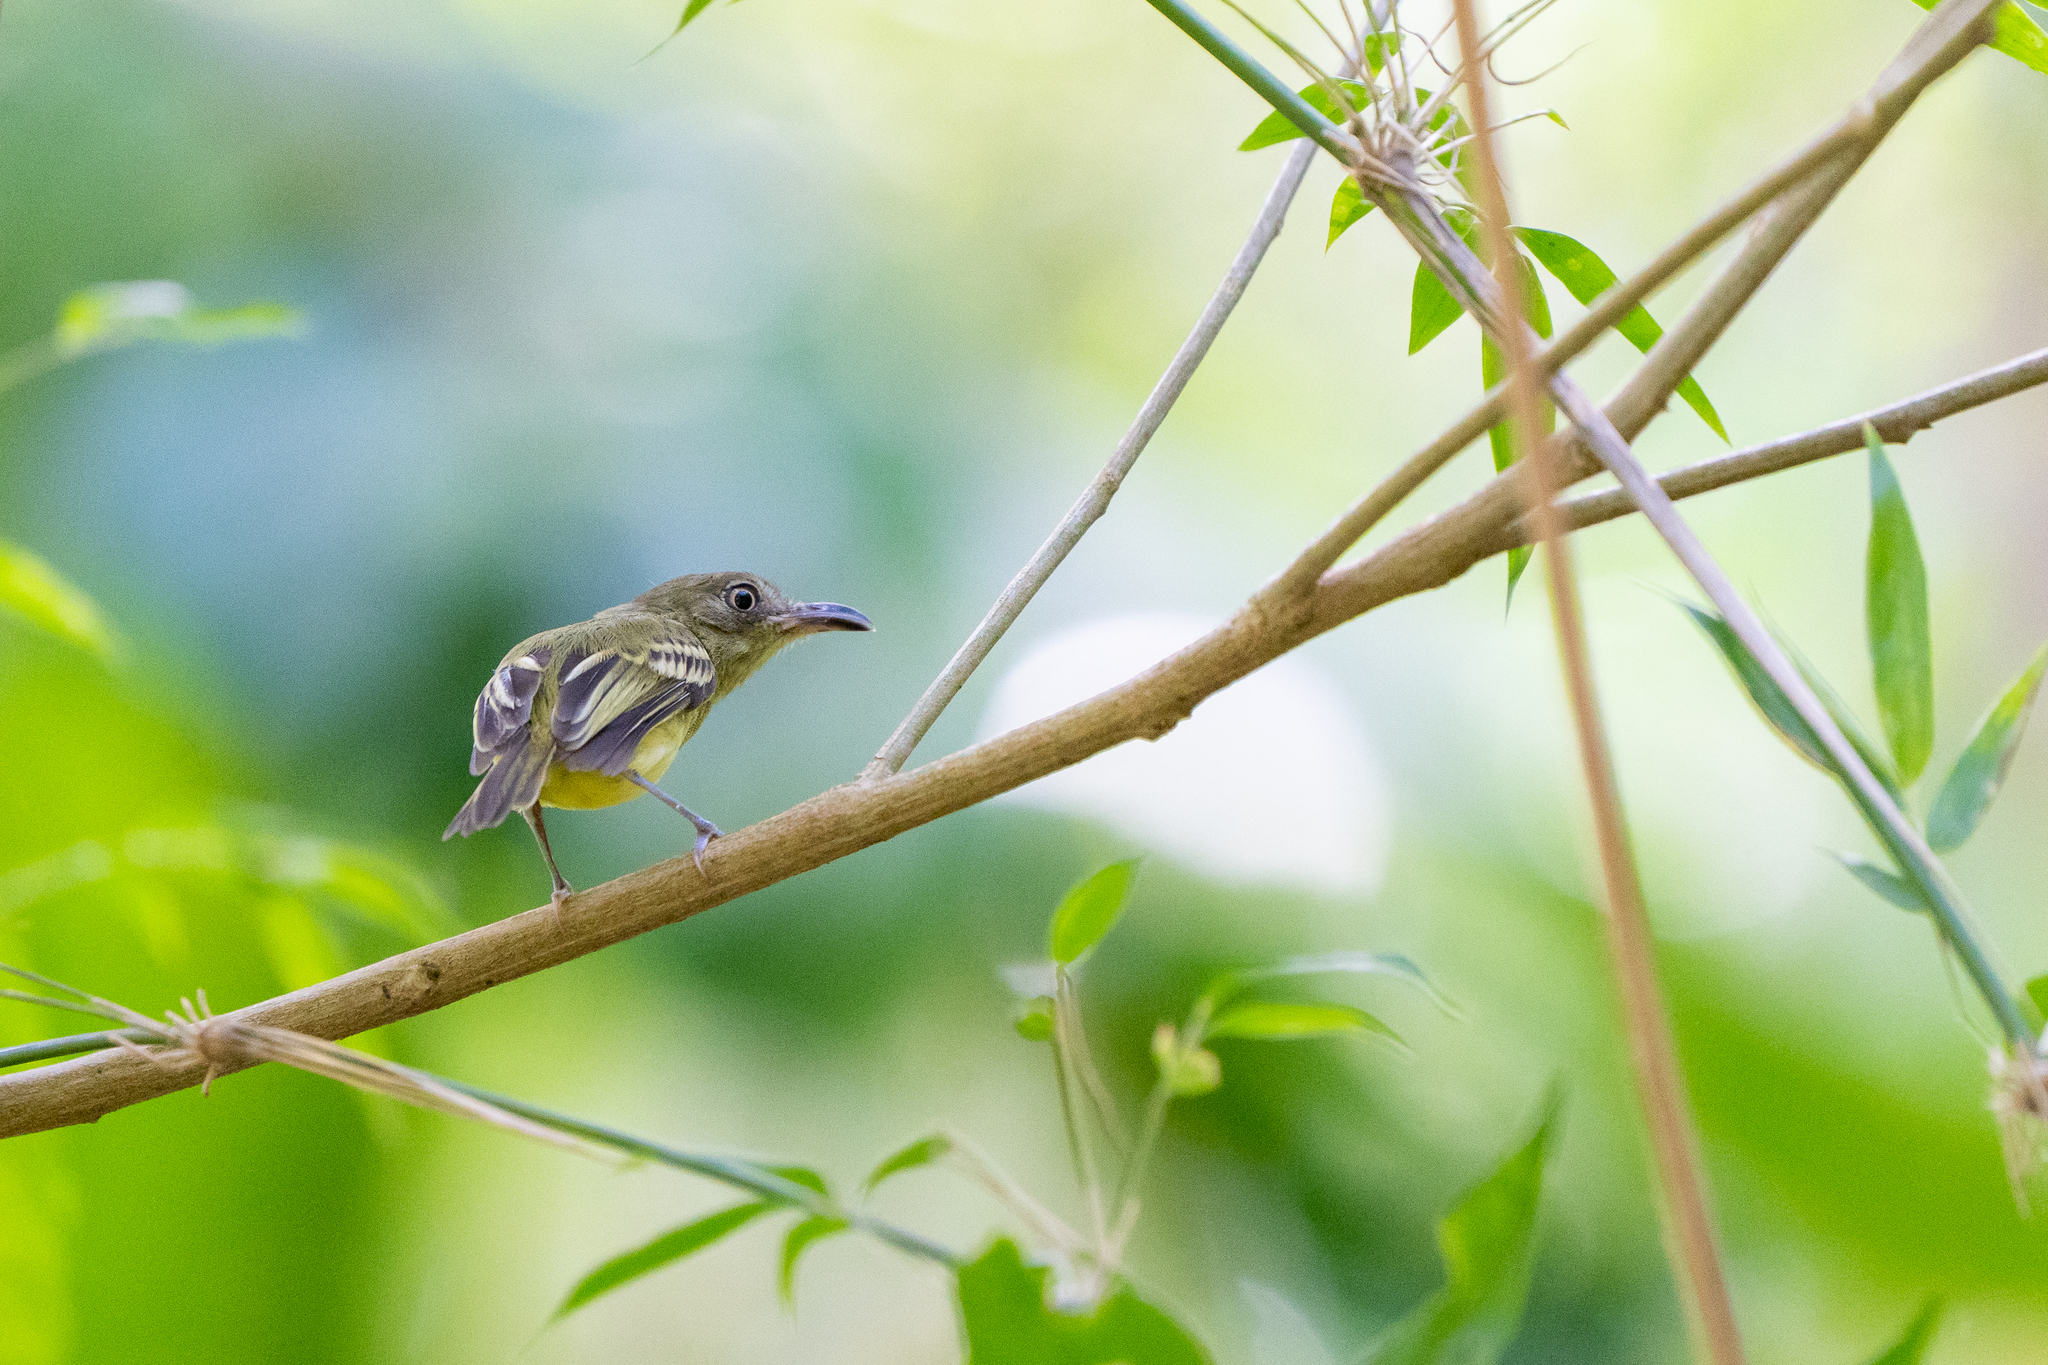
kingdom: Animalia
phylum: Chordata
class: Aves
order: Passeriformes
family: Tyrannidae
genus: Oncostoma
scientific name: Oncostoma olivaceum
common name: Southern bentbill
